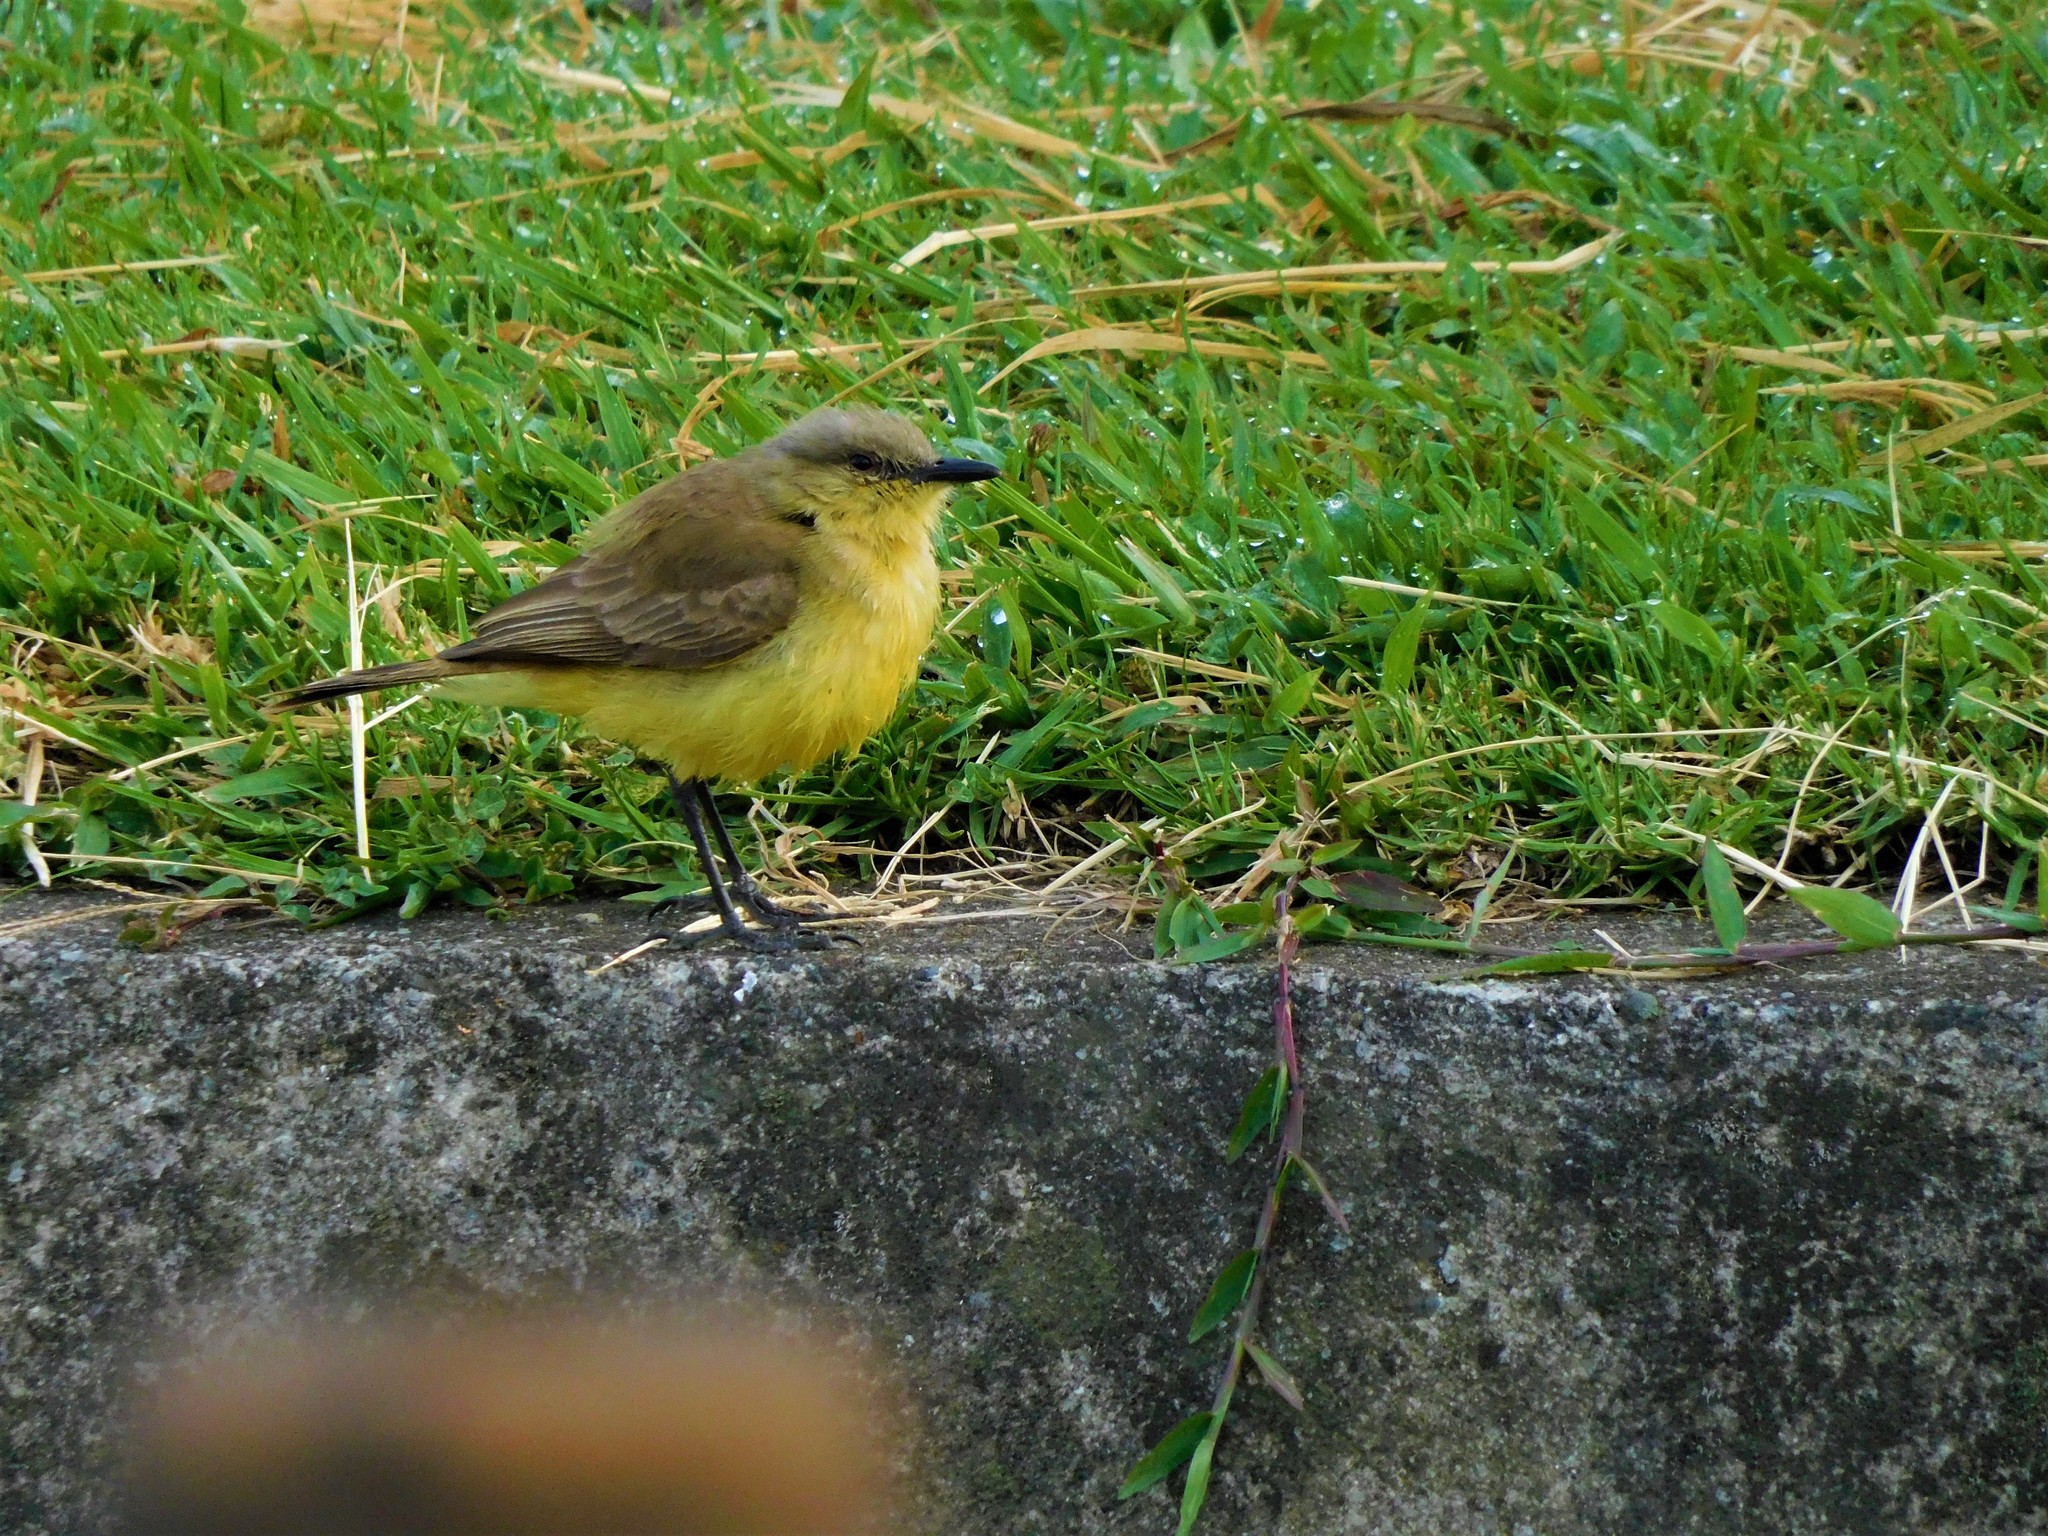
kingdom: Animalia
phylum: Chordata
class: Aves
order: Passeriformes
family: Tyrannidae
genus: Machetornis
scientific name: Machetornis rixosa
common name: Cattle tyrant
